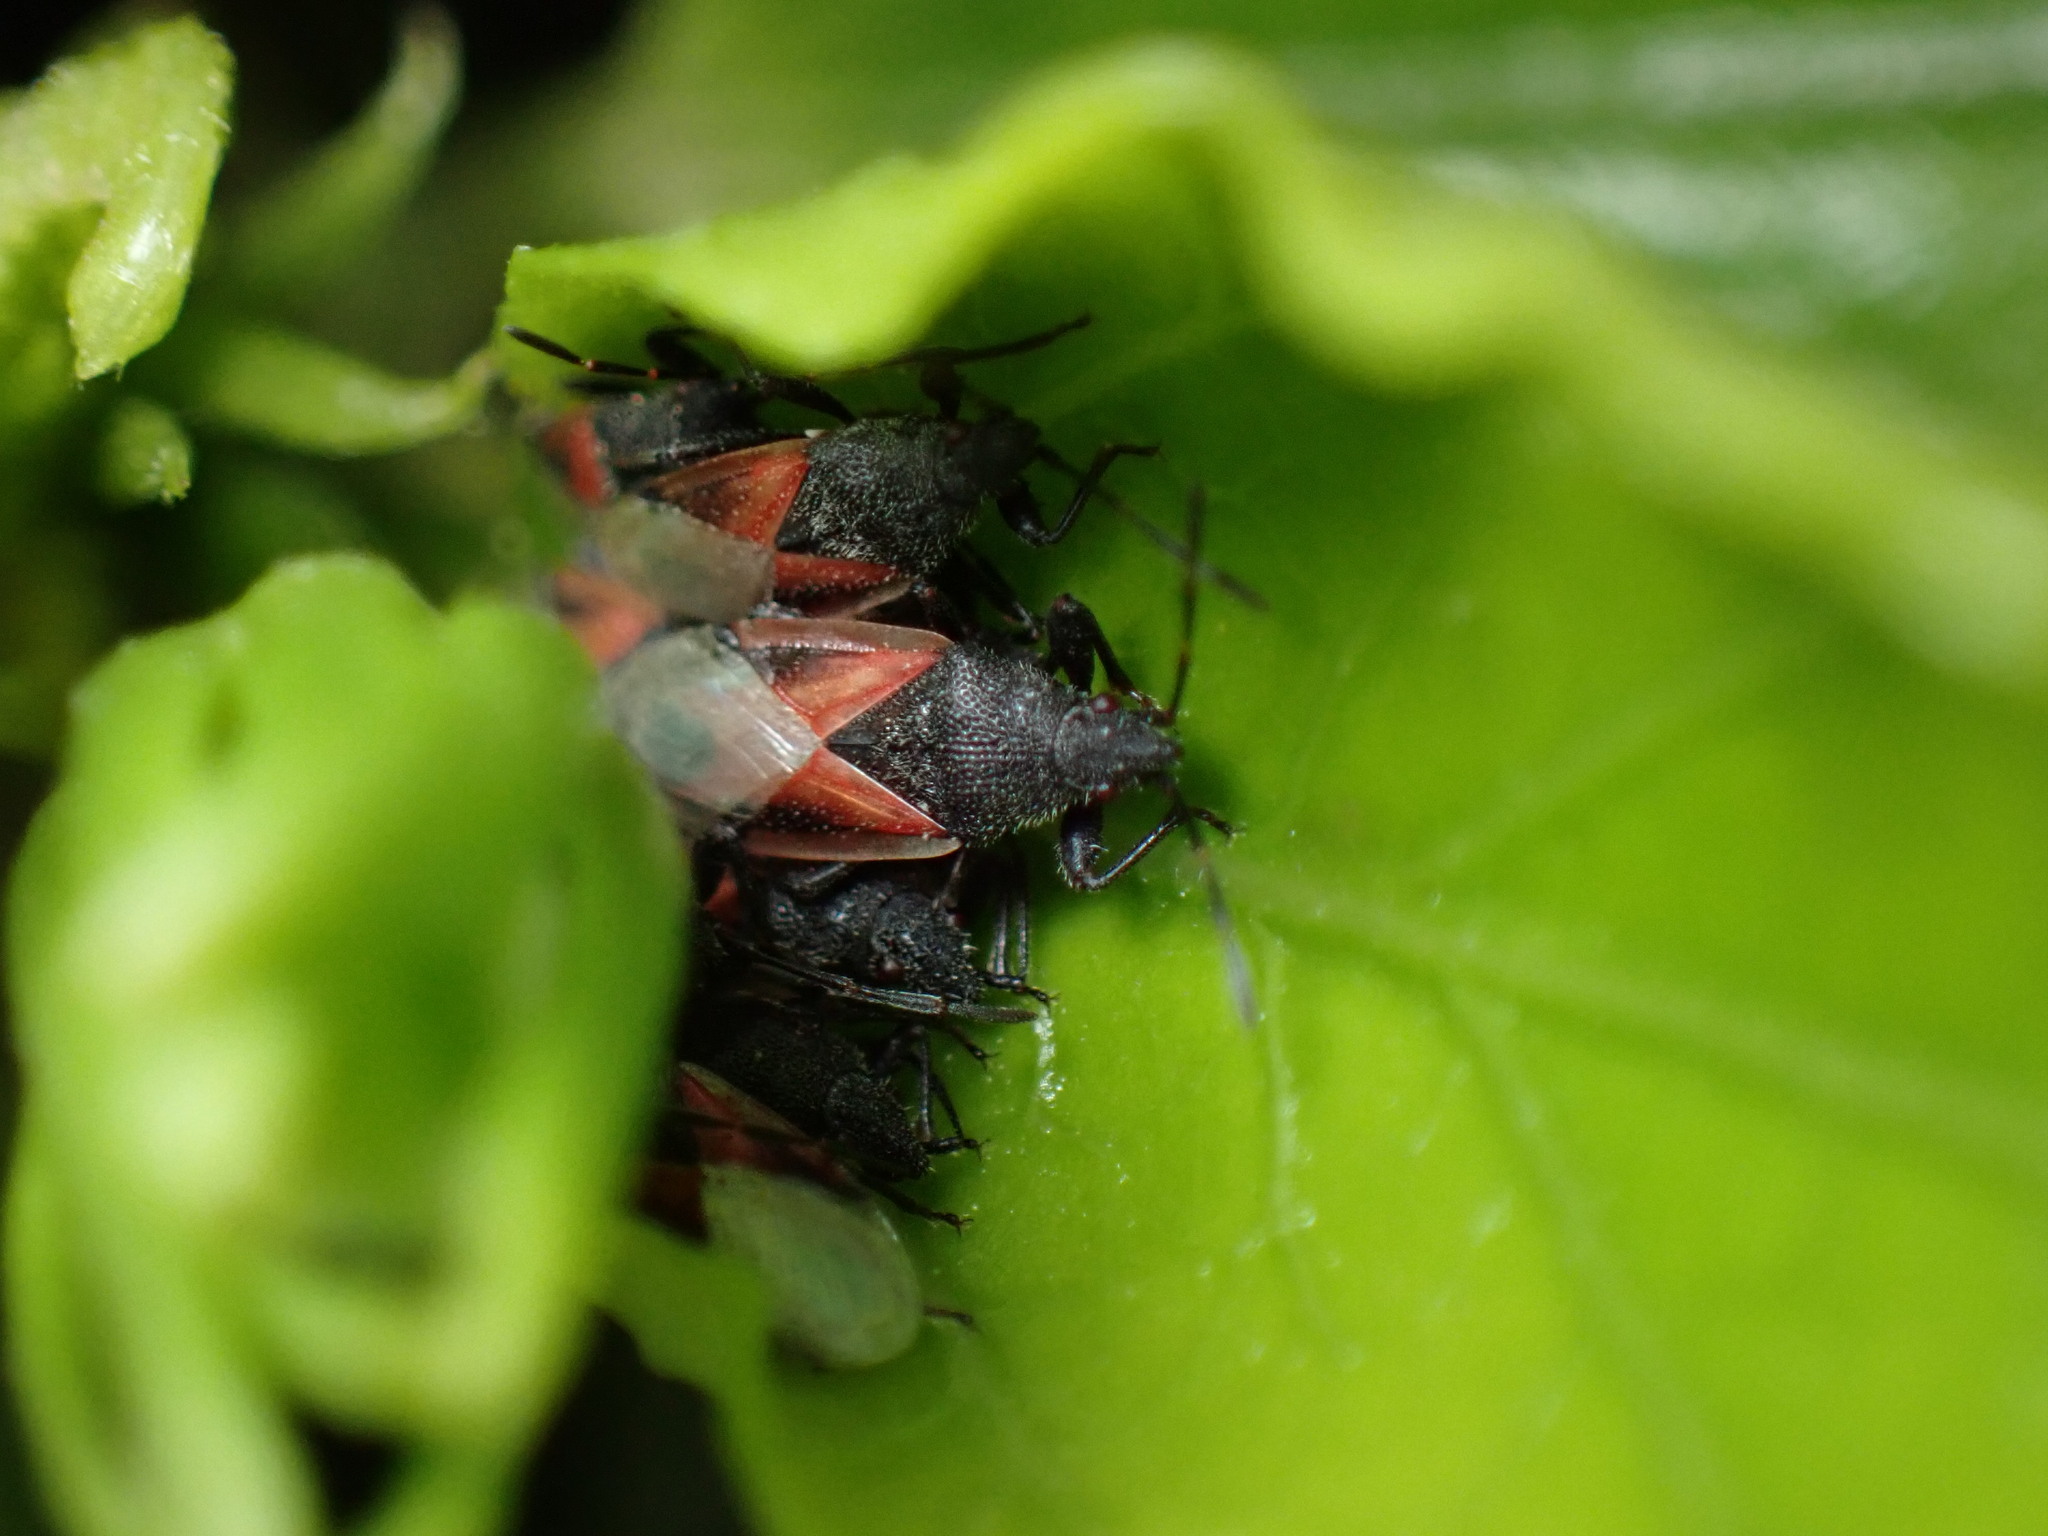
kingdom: Animalia
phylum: Arthropoda
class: Insecta
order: Hemiptera
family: Oxycarenidae
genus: Oxycarenus
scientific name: Oxycarenus lavaterae
